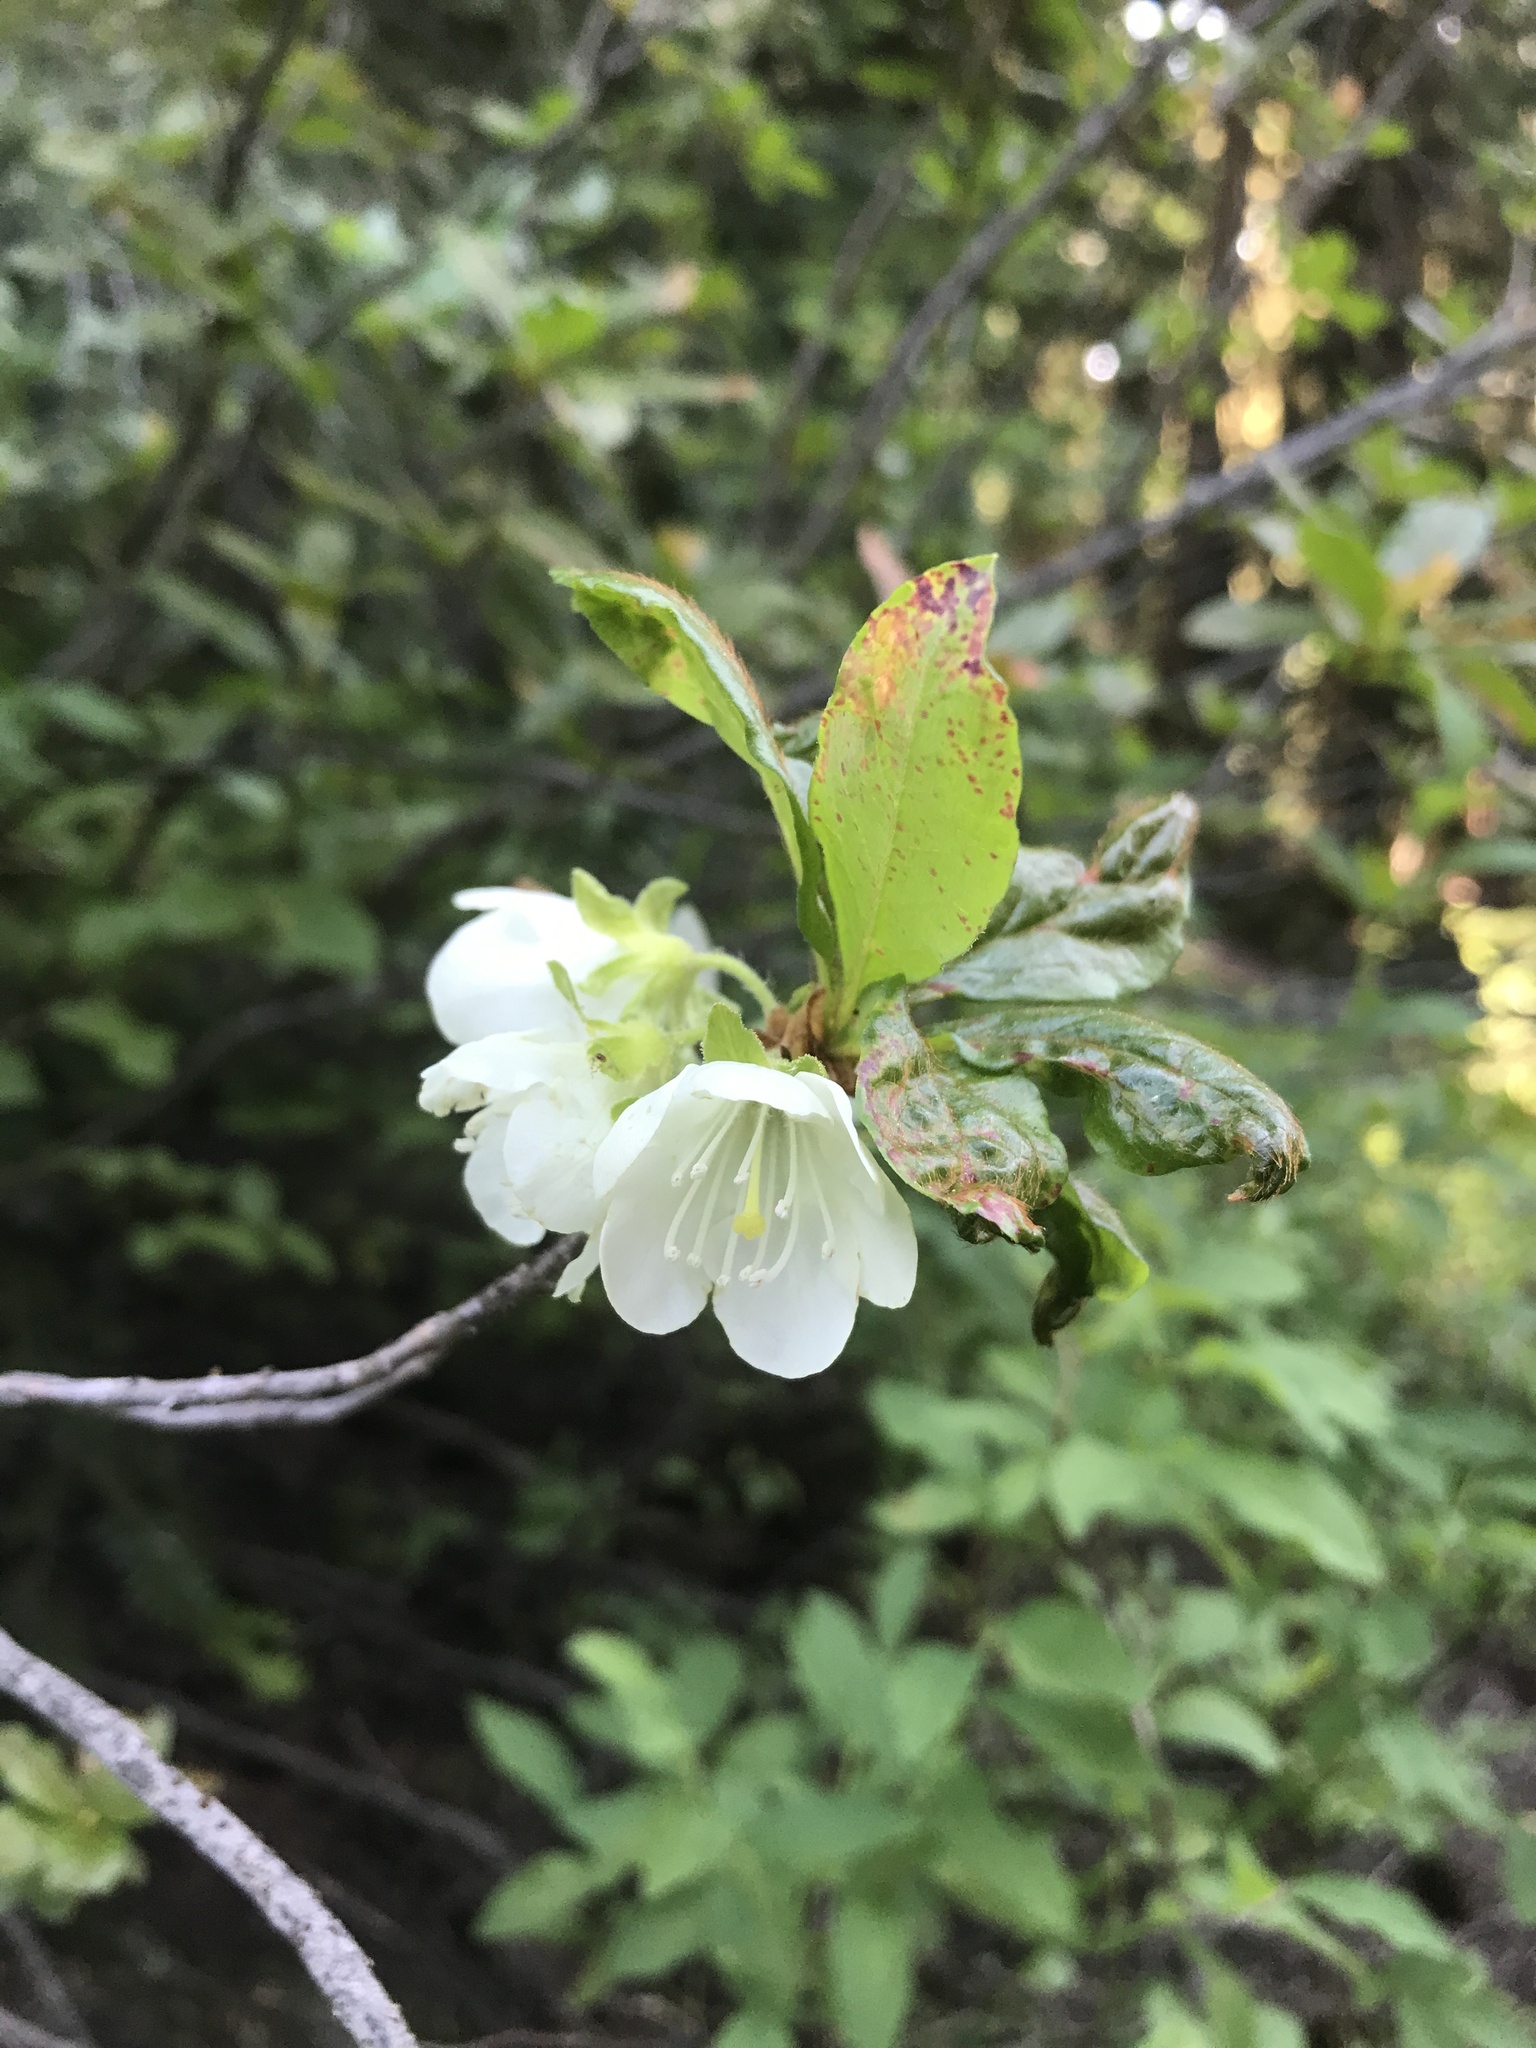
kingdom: Plantae
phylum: Tracheophyta
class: Magnoliopsida
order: Ericales
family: Ericaceae
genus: Rhododendron
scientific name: Rhododendron albiflorum
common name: White rhododendron
